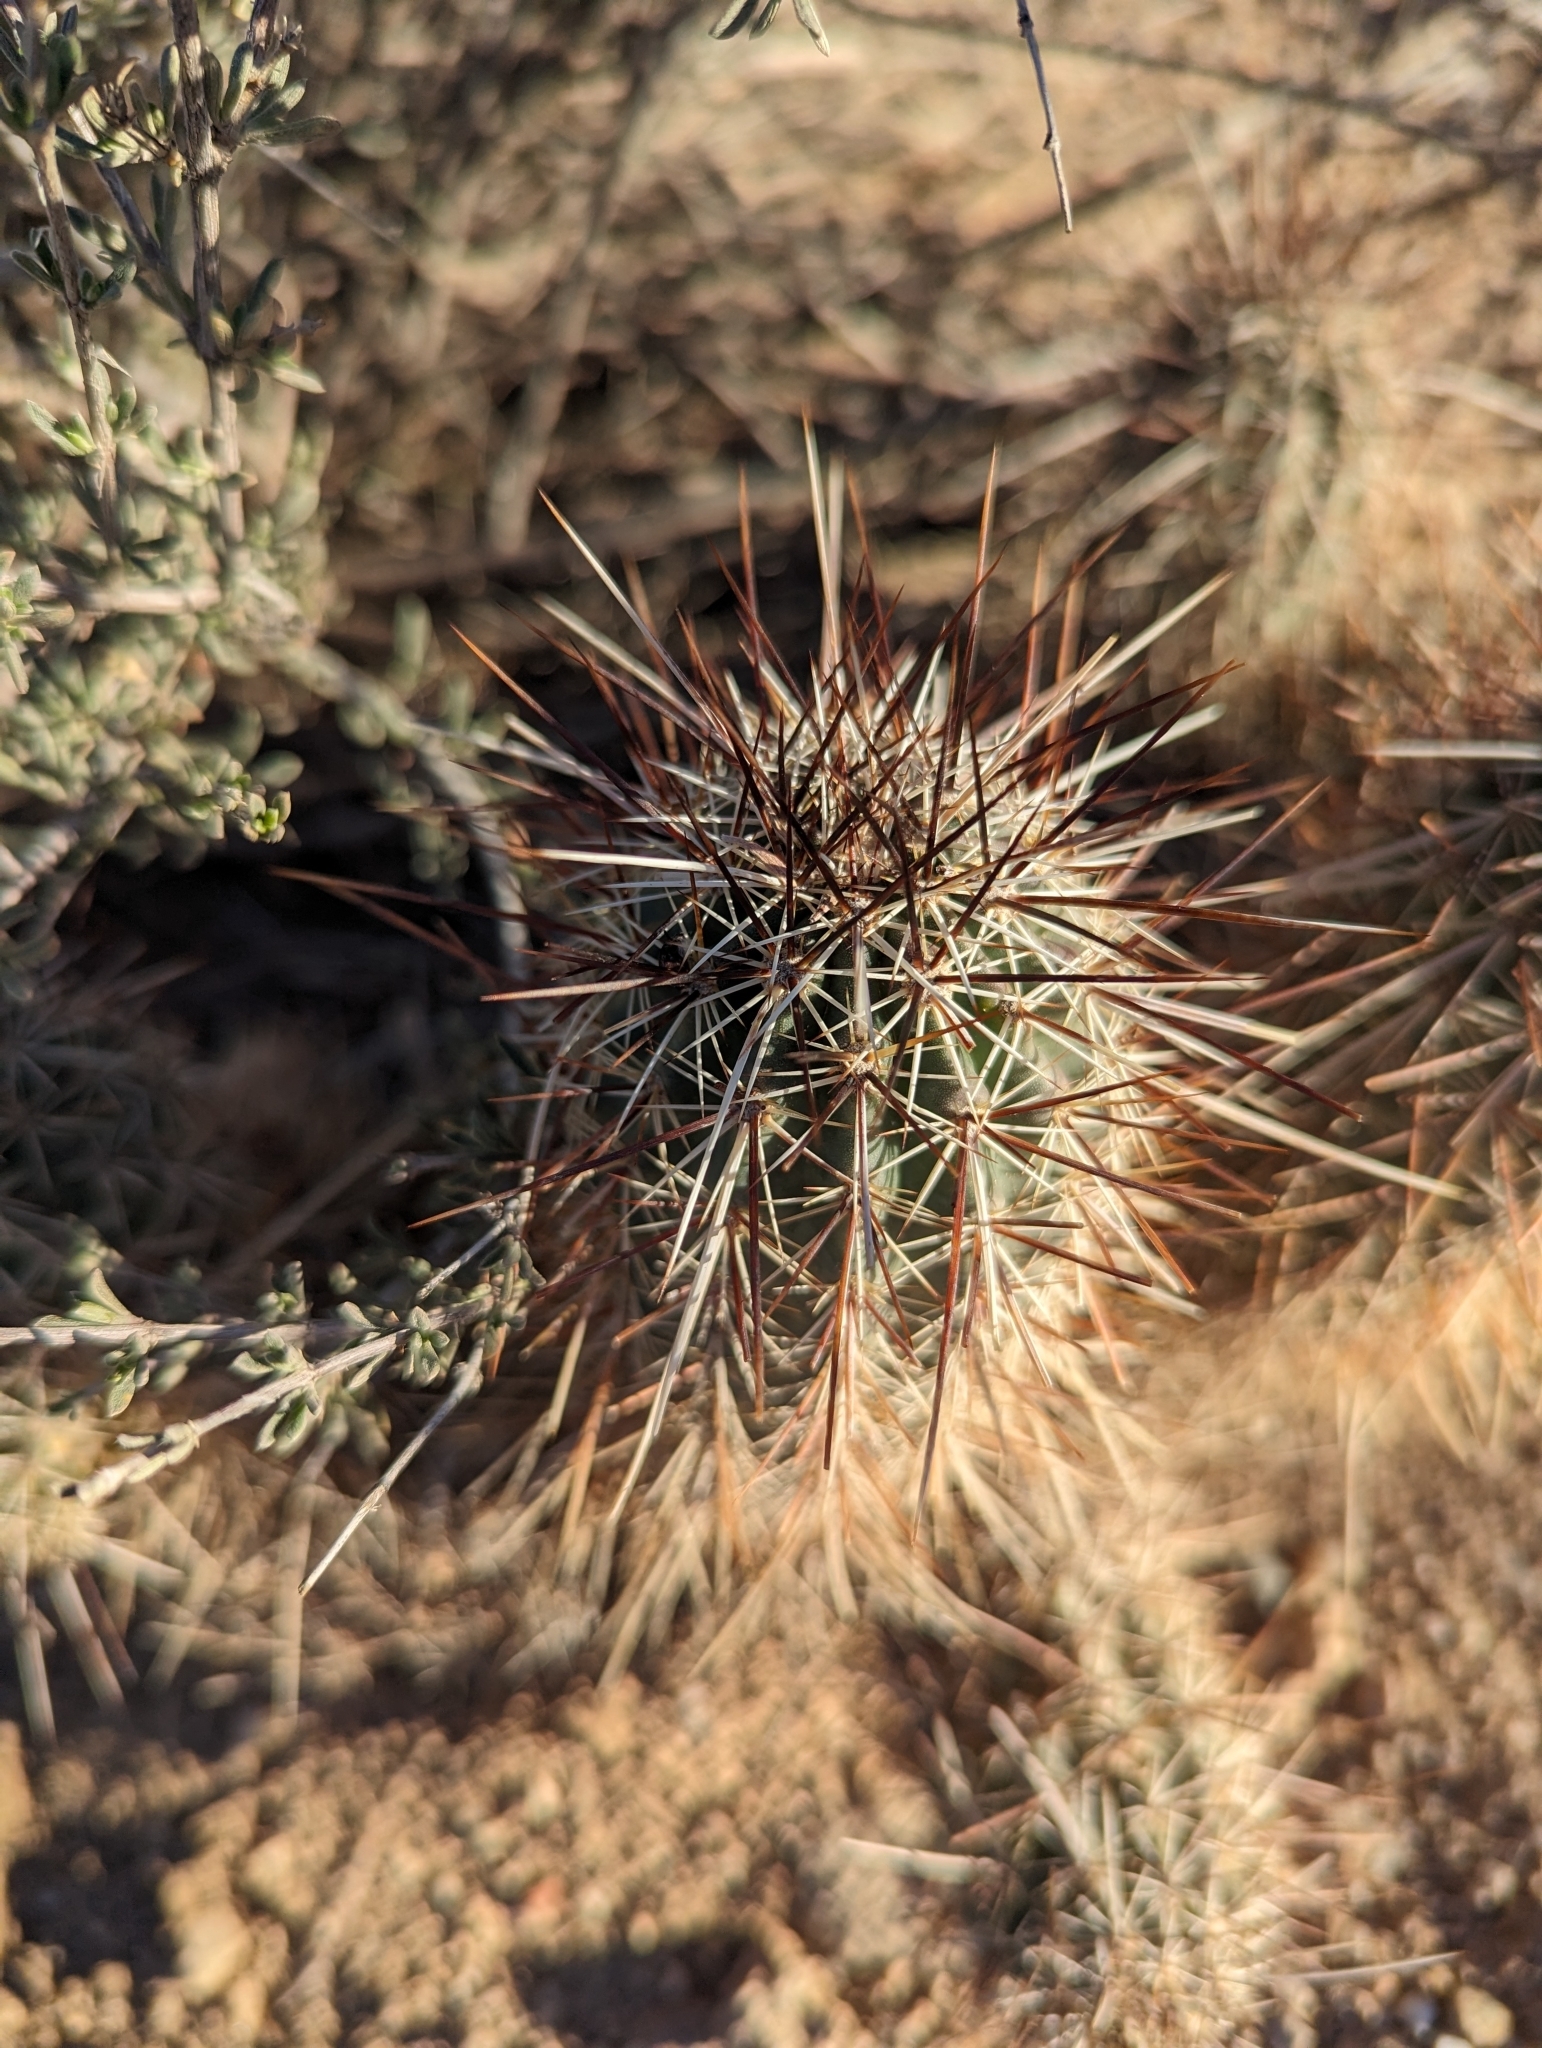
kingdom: Plantae
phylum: Tracheophyta
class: Magnoliopsida
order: Caryophyllales
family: Cactaceae
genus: Echinocereus
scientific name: Echinocereus engelmannii
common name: Engelmann's hedgehog cactus
